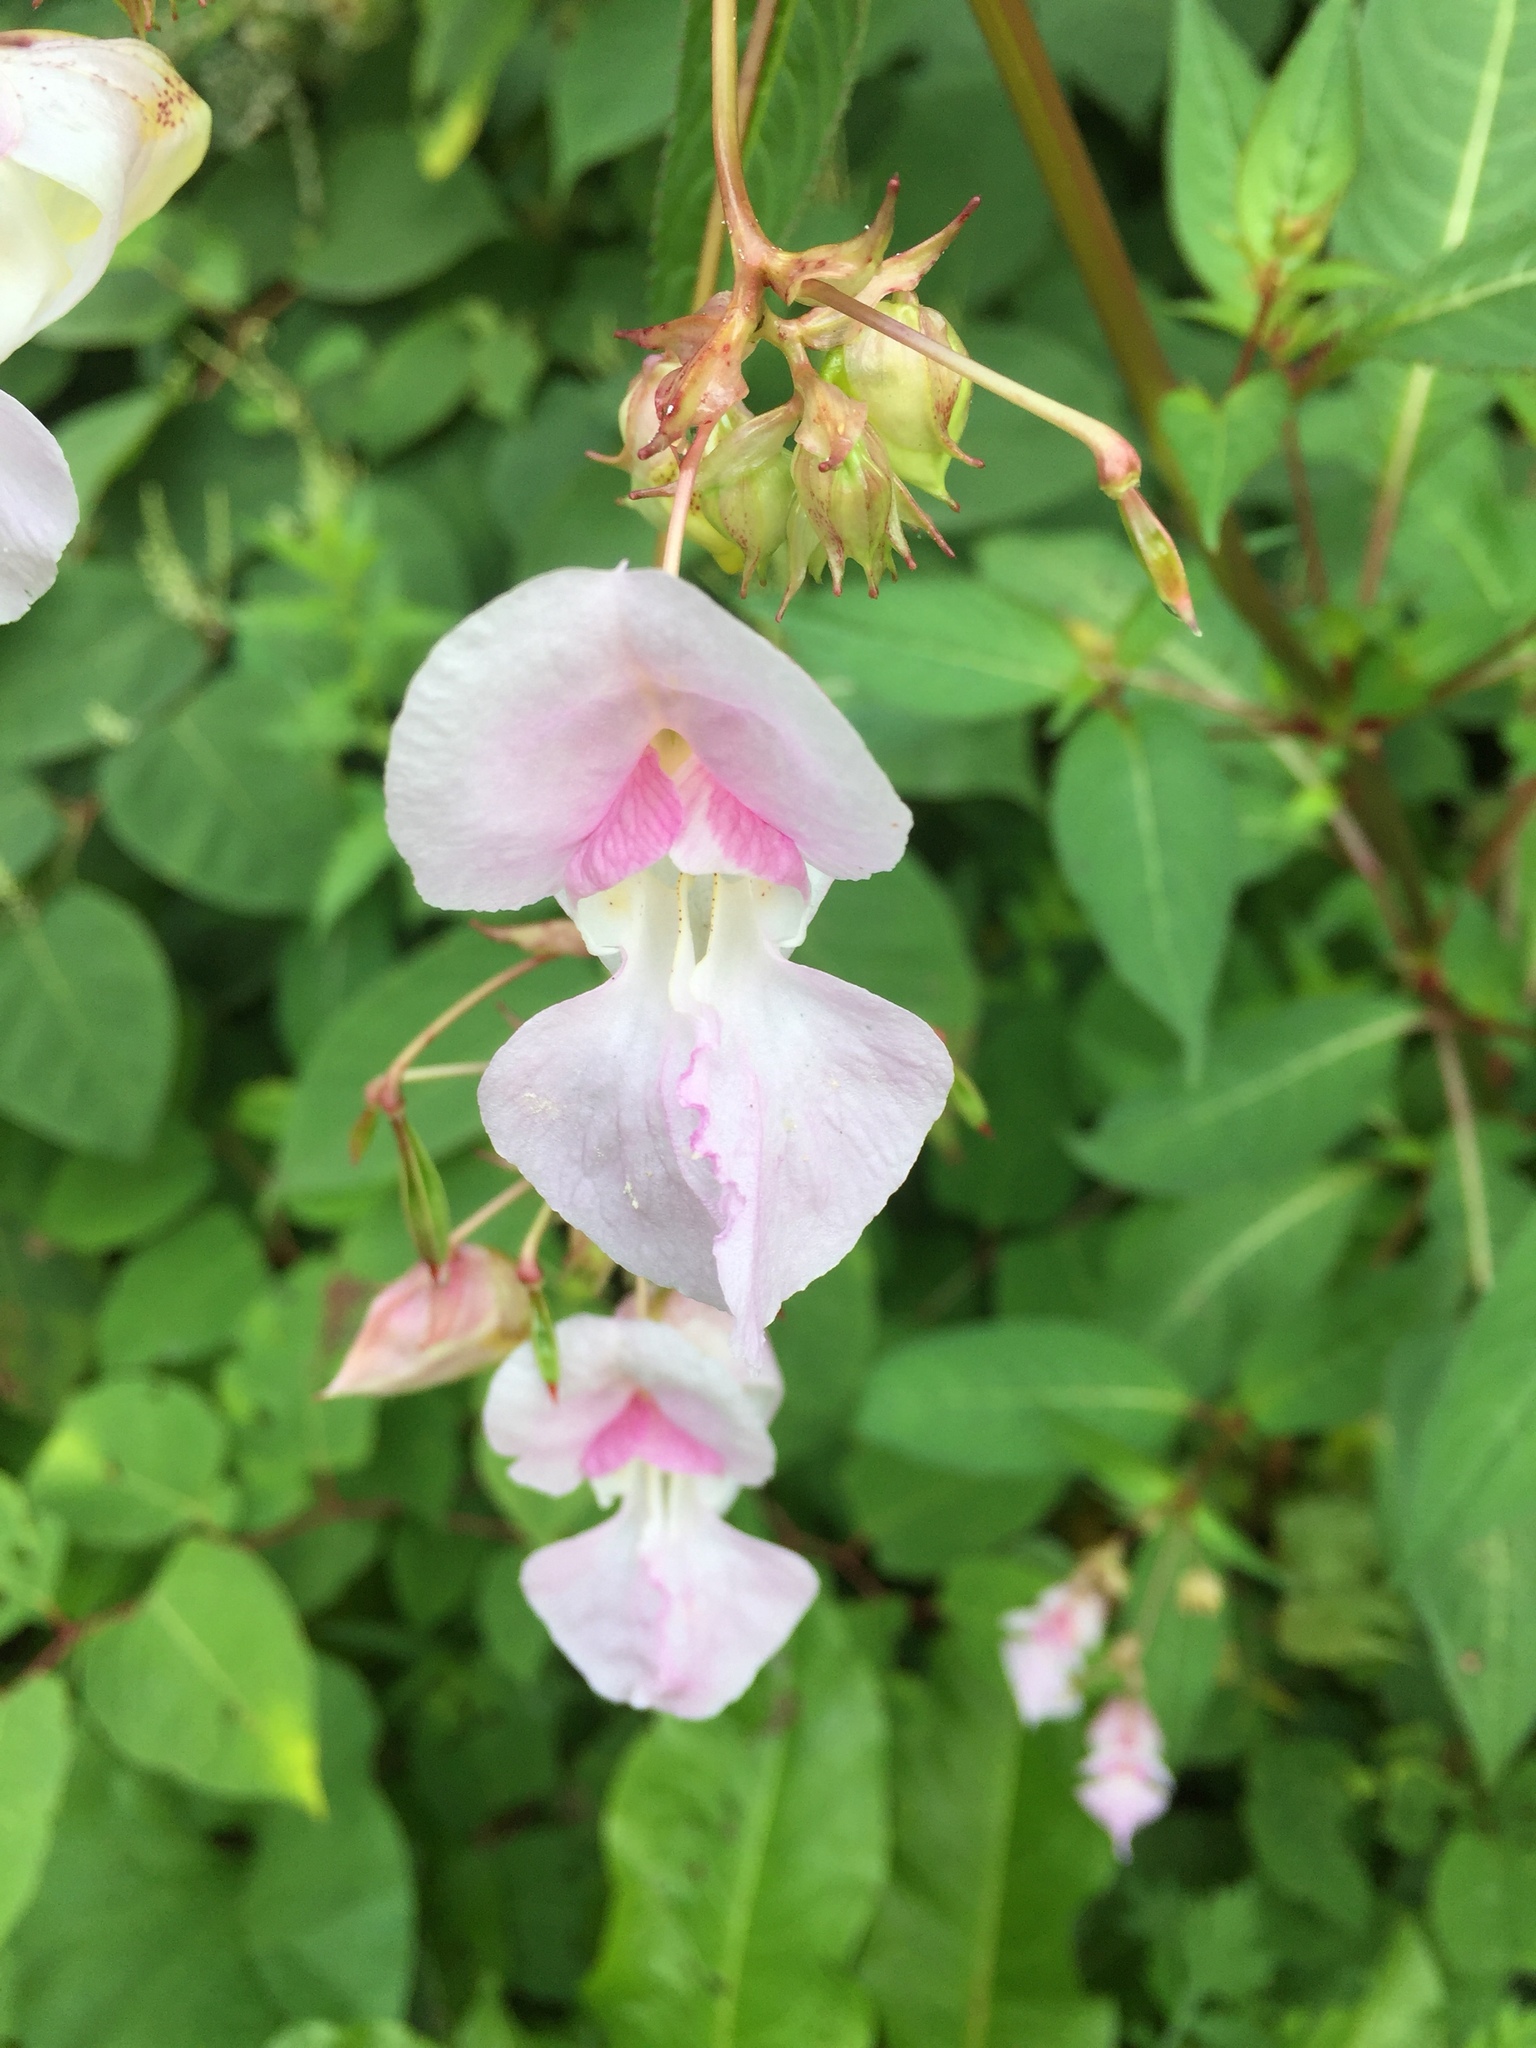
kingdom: Plantae
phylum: Tracheophyta
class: Magnoliopsida
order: Ericales
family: Balsaminaceae
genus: Impatiens
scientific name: Impatiens glandulifera
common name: Himalayan balsam
